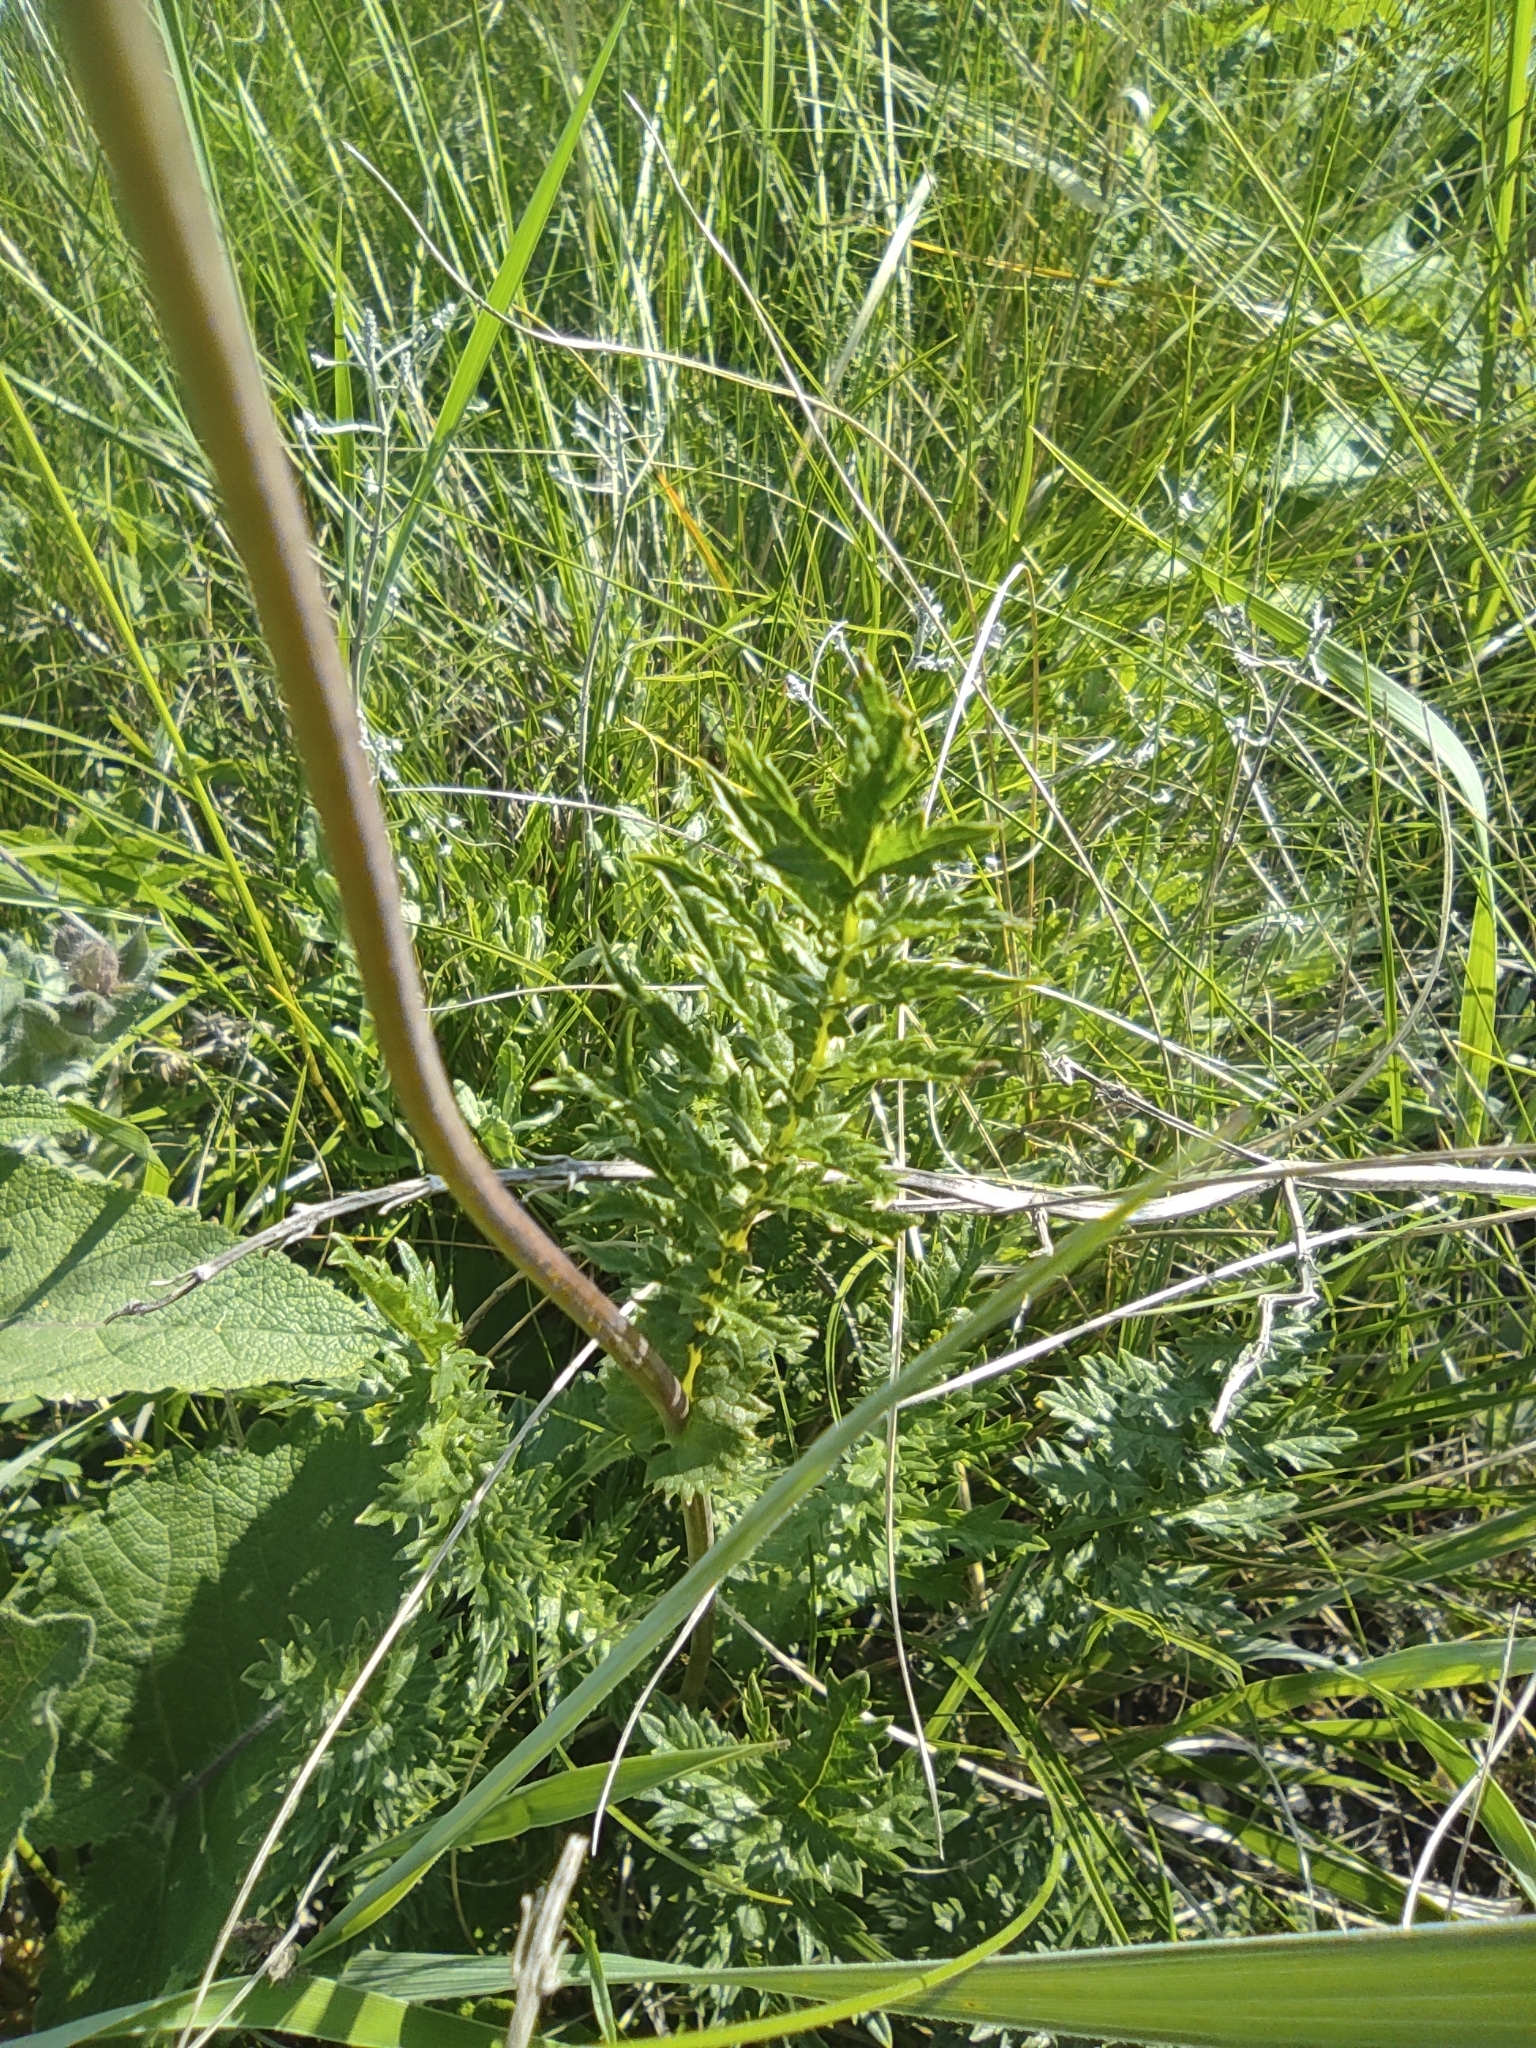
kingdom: Plantae
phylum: Tracheophyta
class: Magnoliopsida
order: Rosales
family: Rosaceae
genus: Filipendula
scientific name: Filipendula vulgaris
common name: Dropwort
